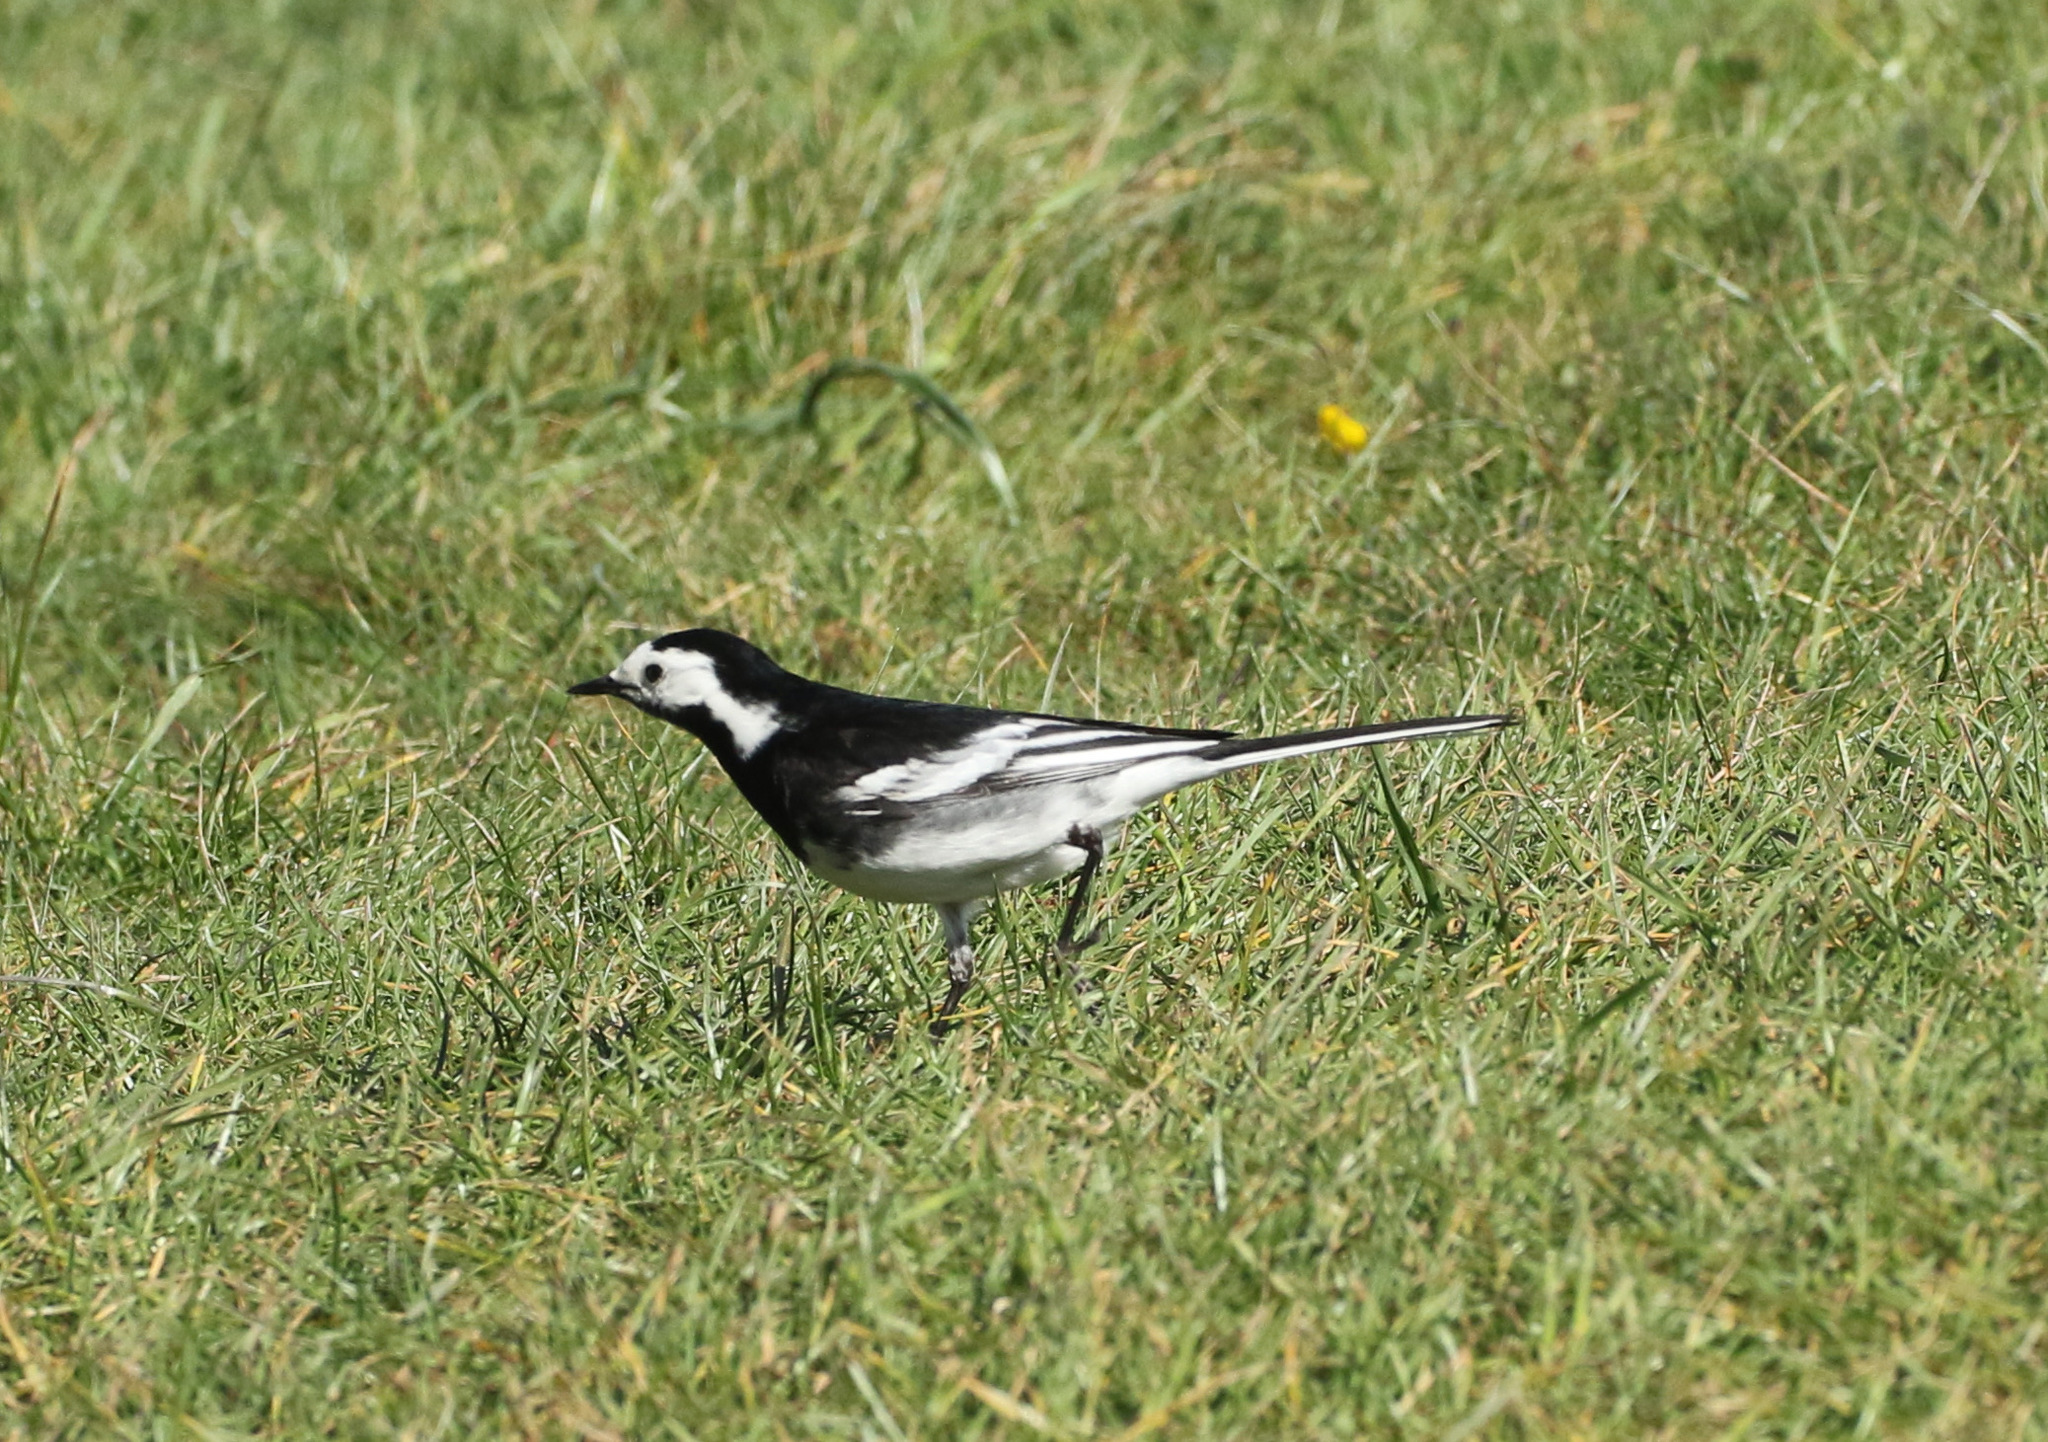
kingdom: Animalia
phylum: Chordata
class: Aves
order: Passeriformes
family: Motacillidae
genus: Motacilla
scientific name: Motacilla alba
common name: White wagtail
